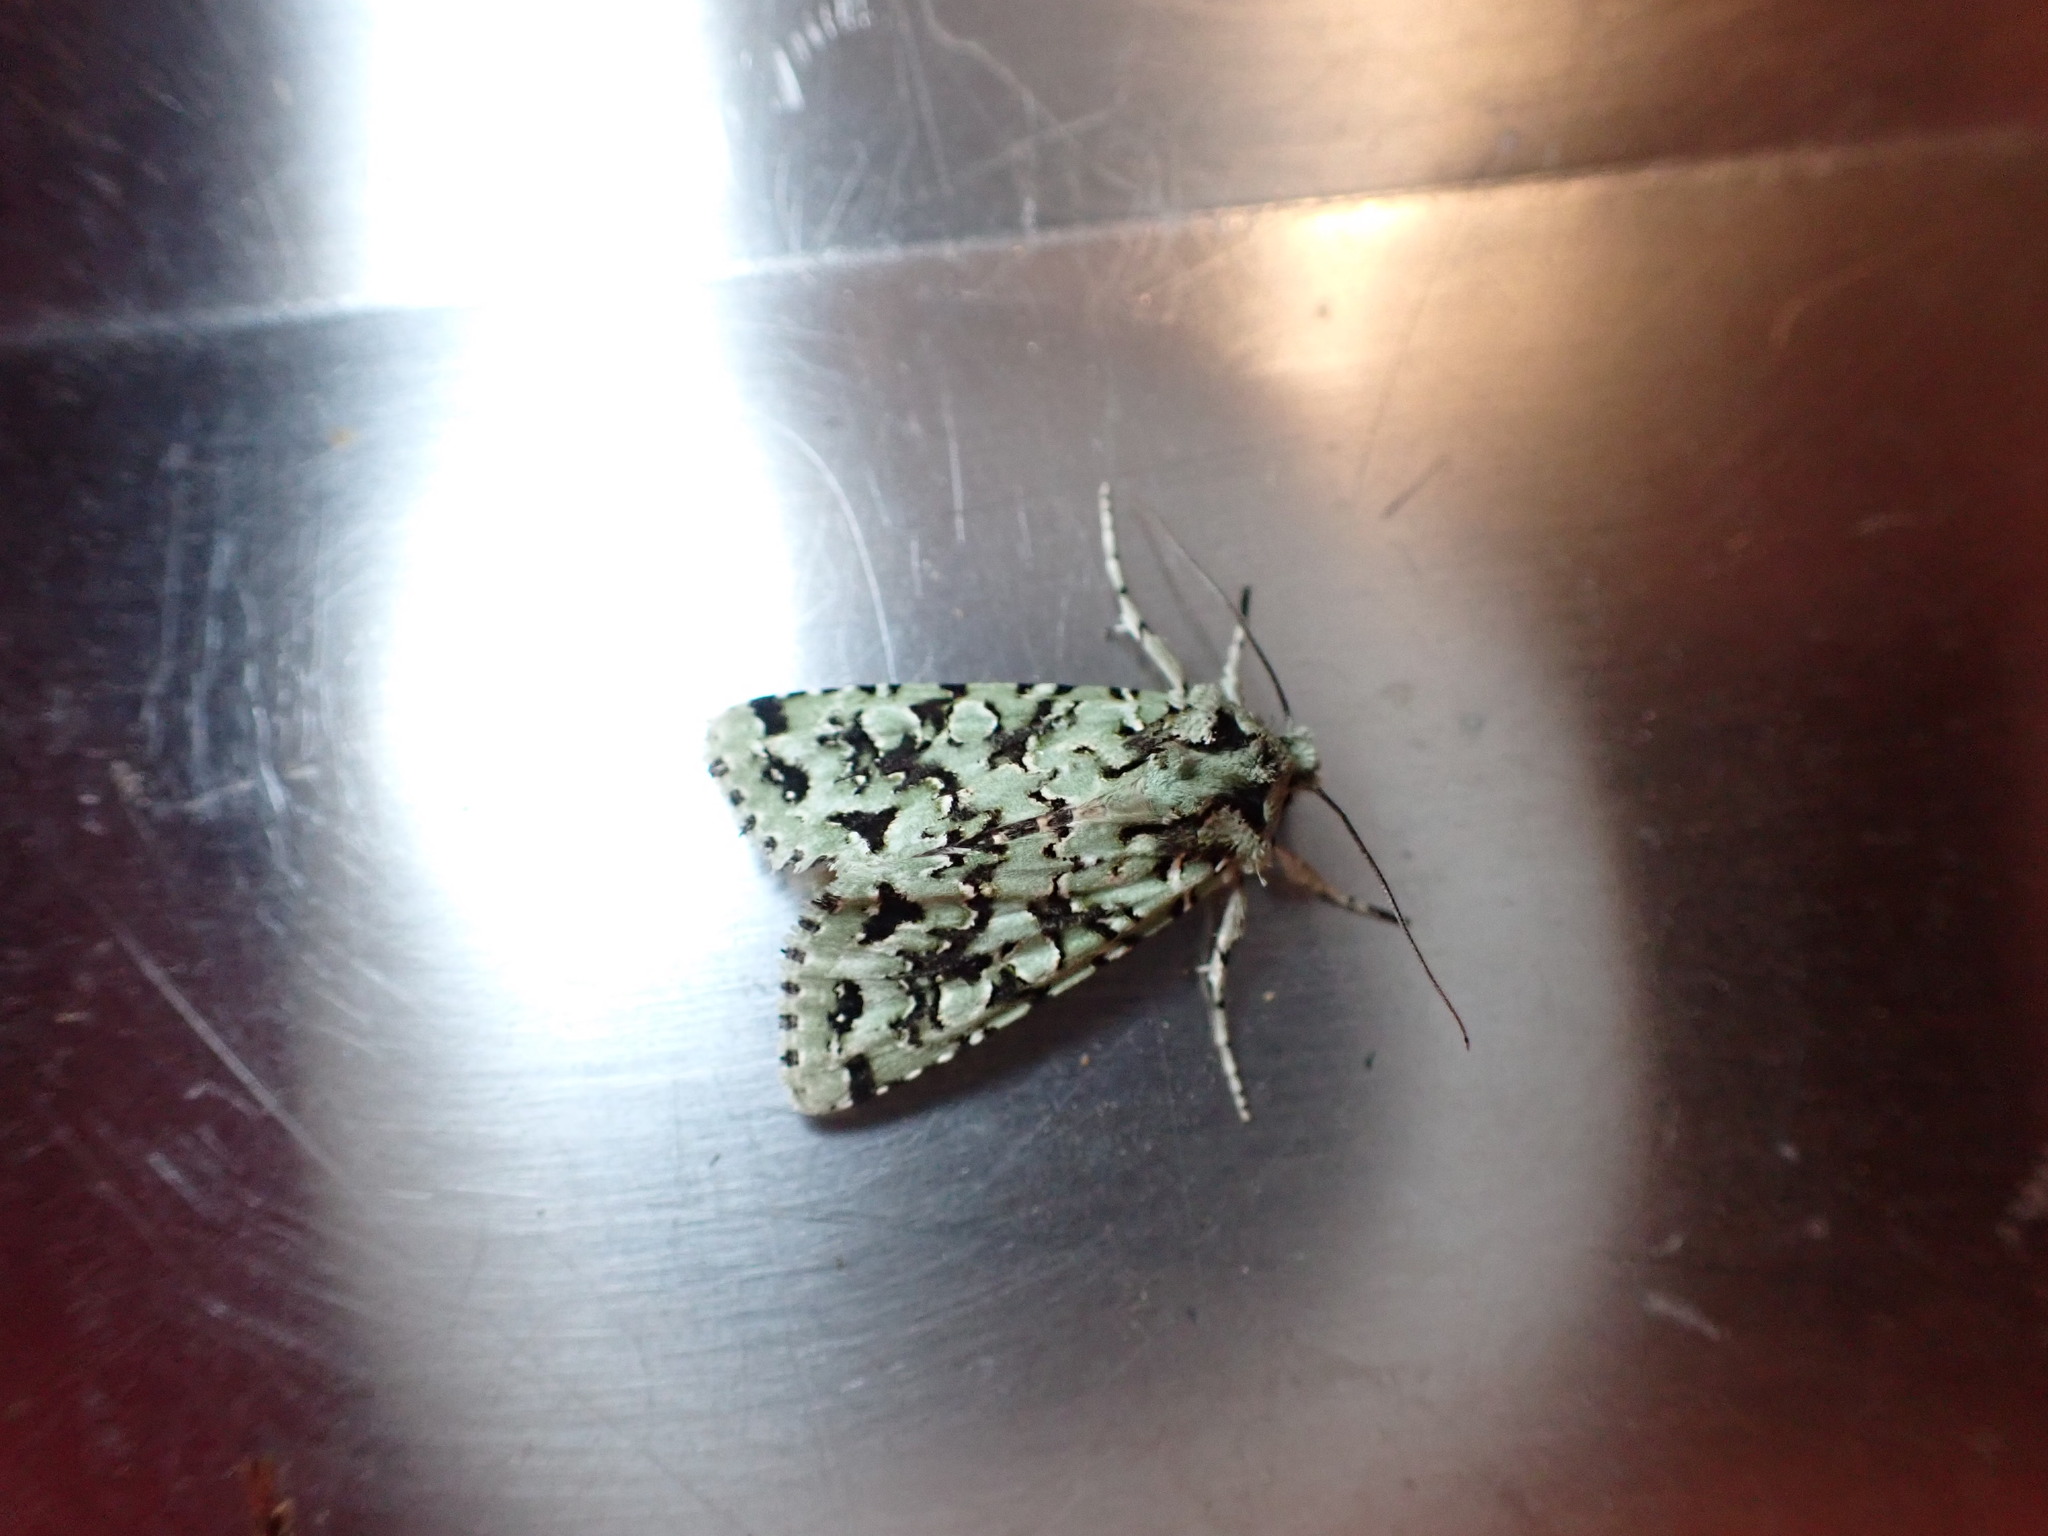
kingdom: Animalia
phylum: Arthropoda
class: Insecta
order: Lepidoptera
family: Noctuidae
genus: Meterana
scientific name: Meterana
